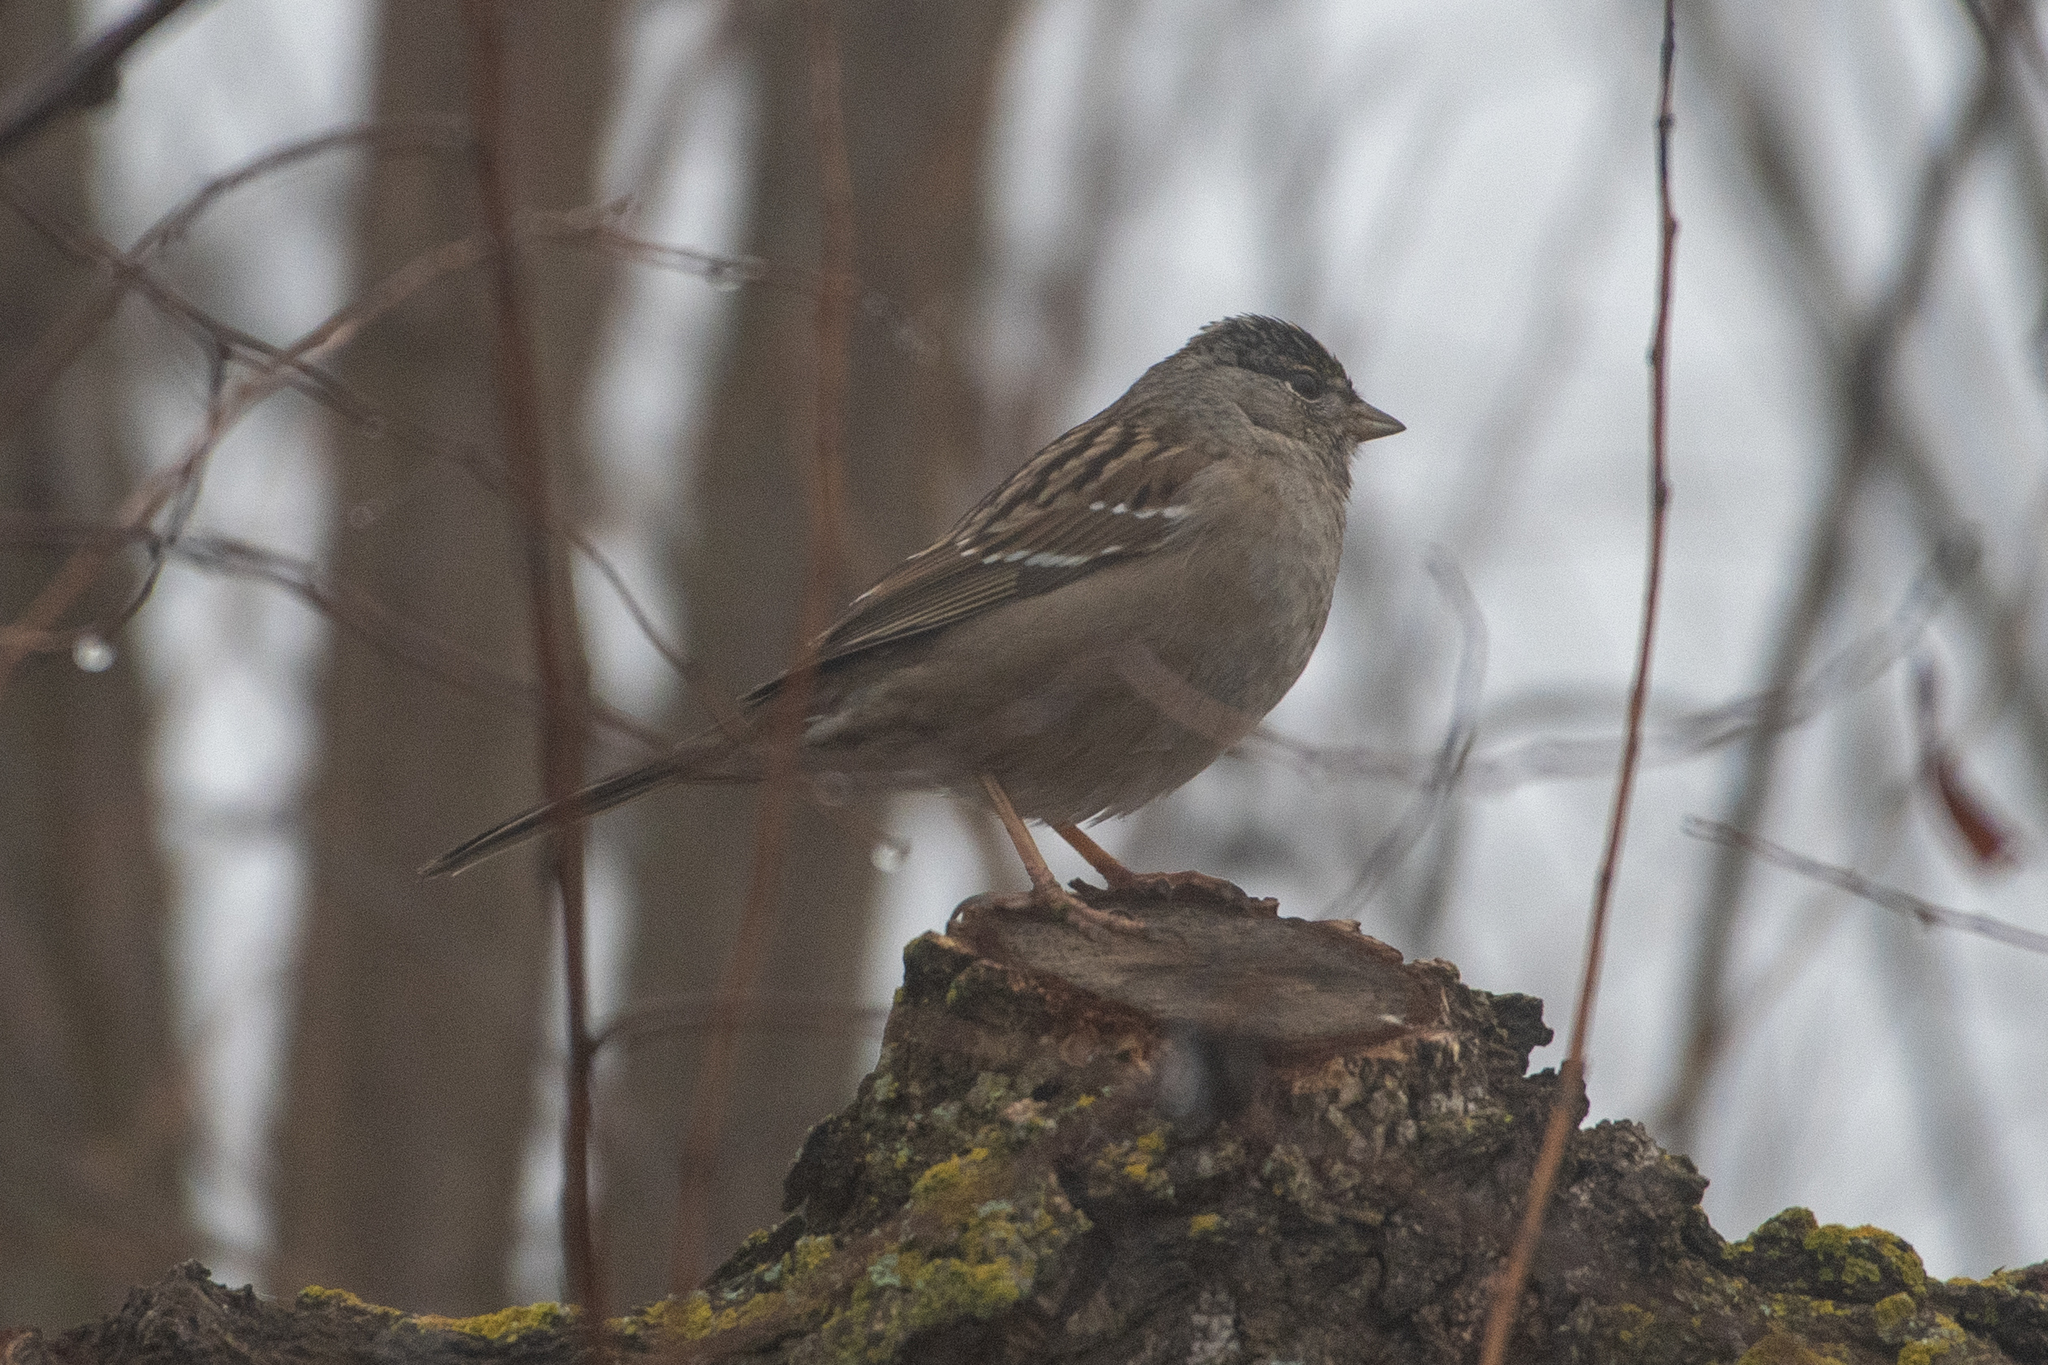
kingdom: Animalia
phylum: Chordata
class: Aves
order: Passeriformes
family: Passerellidae
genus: Zonotrichia
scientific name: Zonotrichia atricapilla
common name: Golden-crowned sparrow
